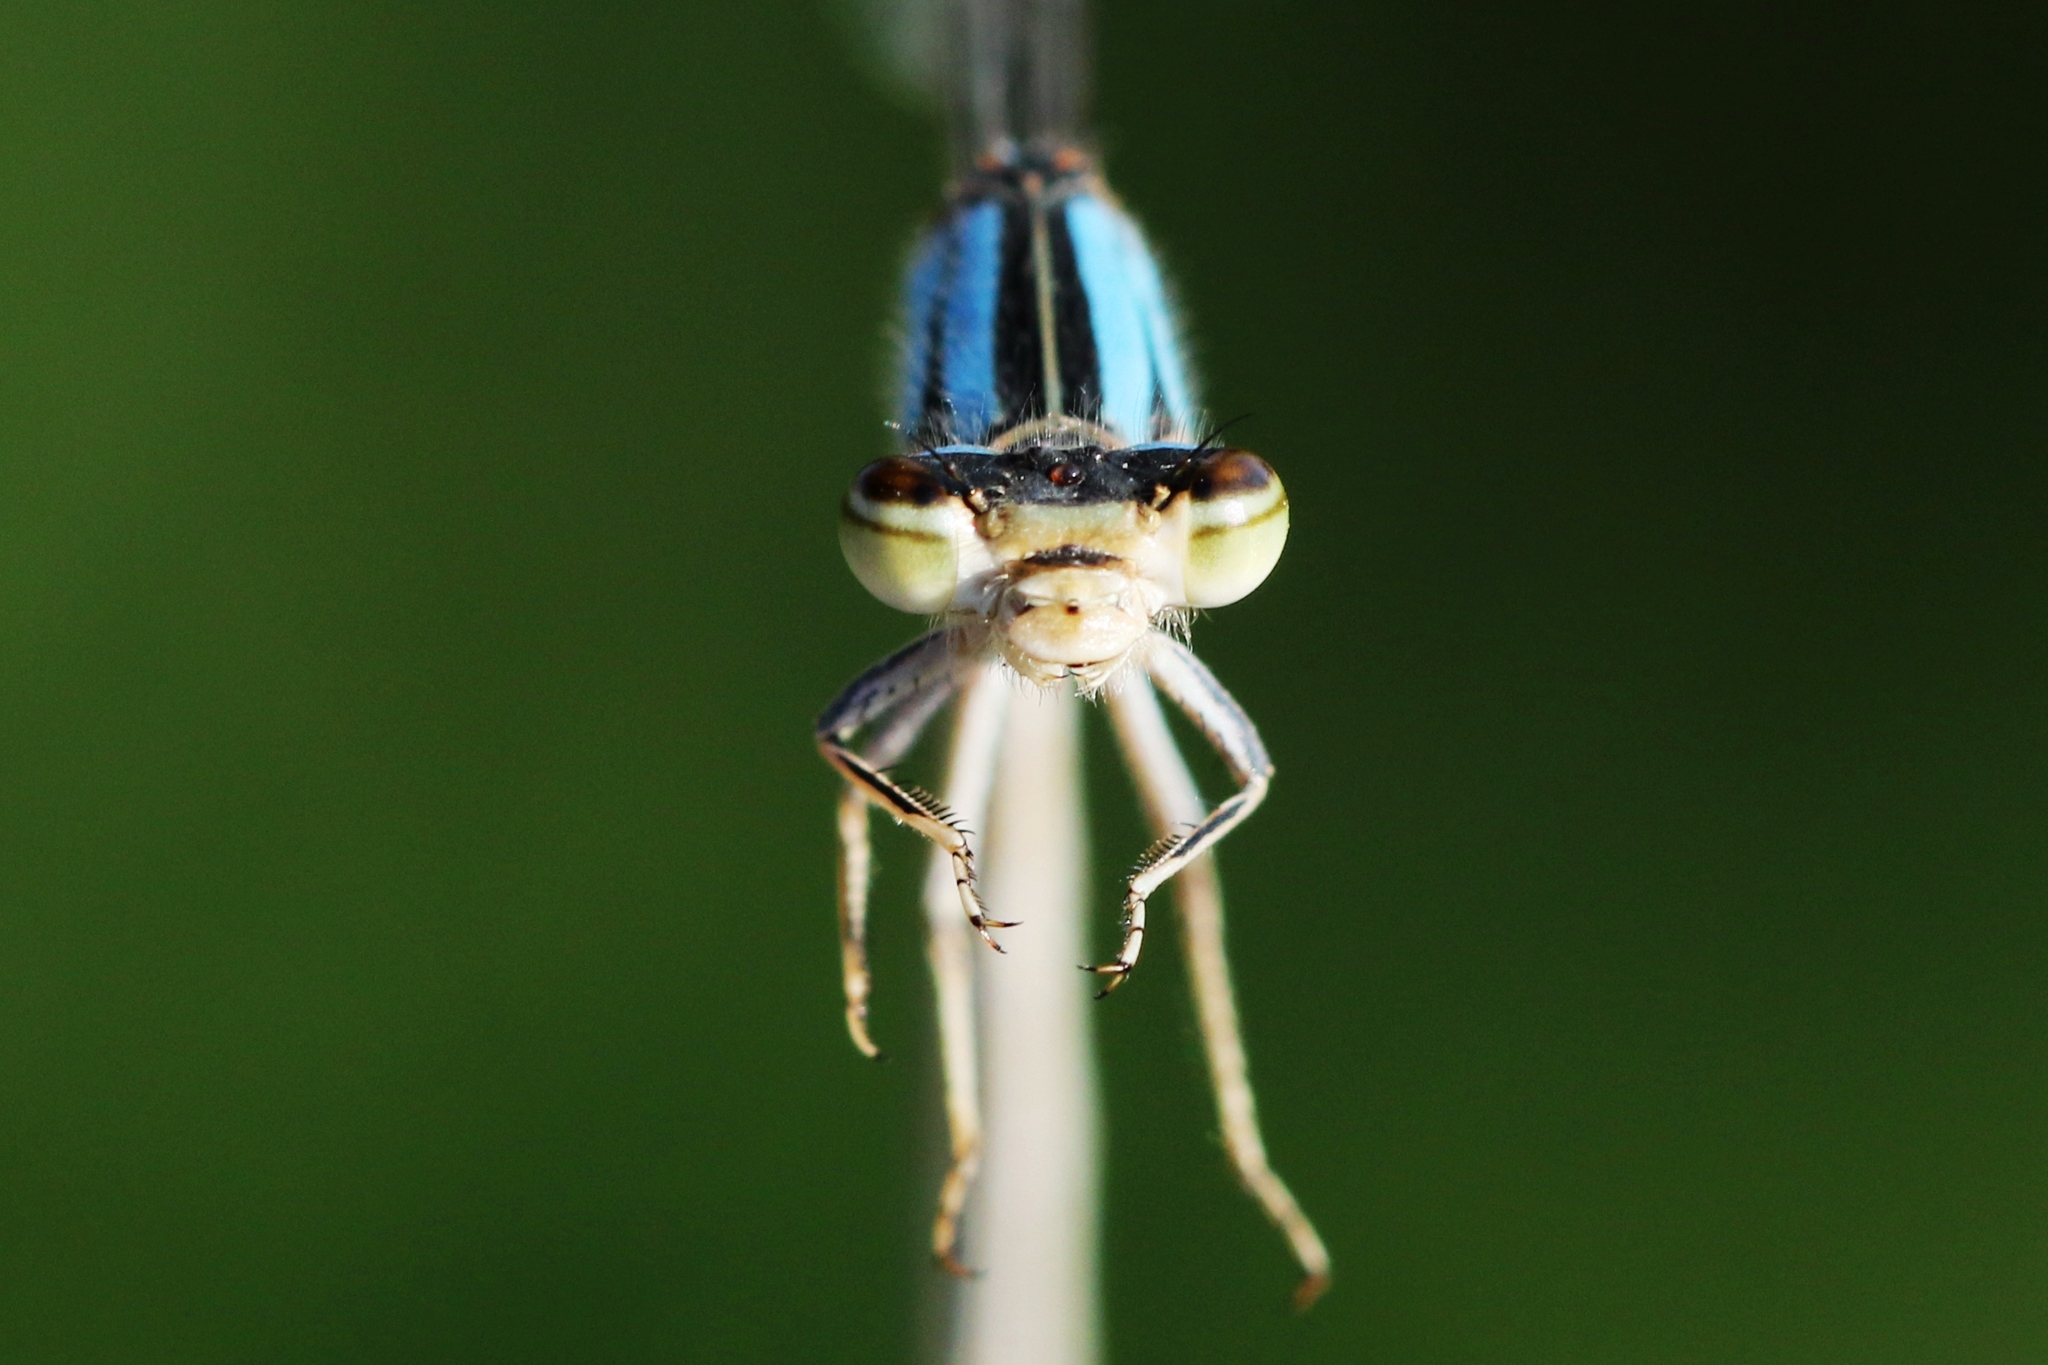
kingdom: Animalia
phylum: Arthropoda
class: Insecta
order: Odonata
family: Coenagrionidae
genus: Enallagma
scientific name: Enallagma anna
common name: River bluet
